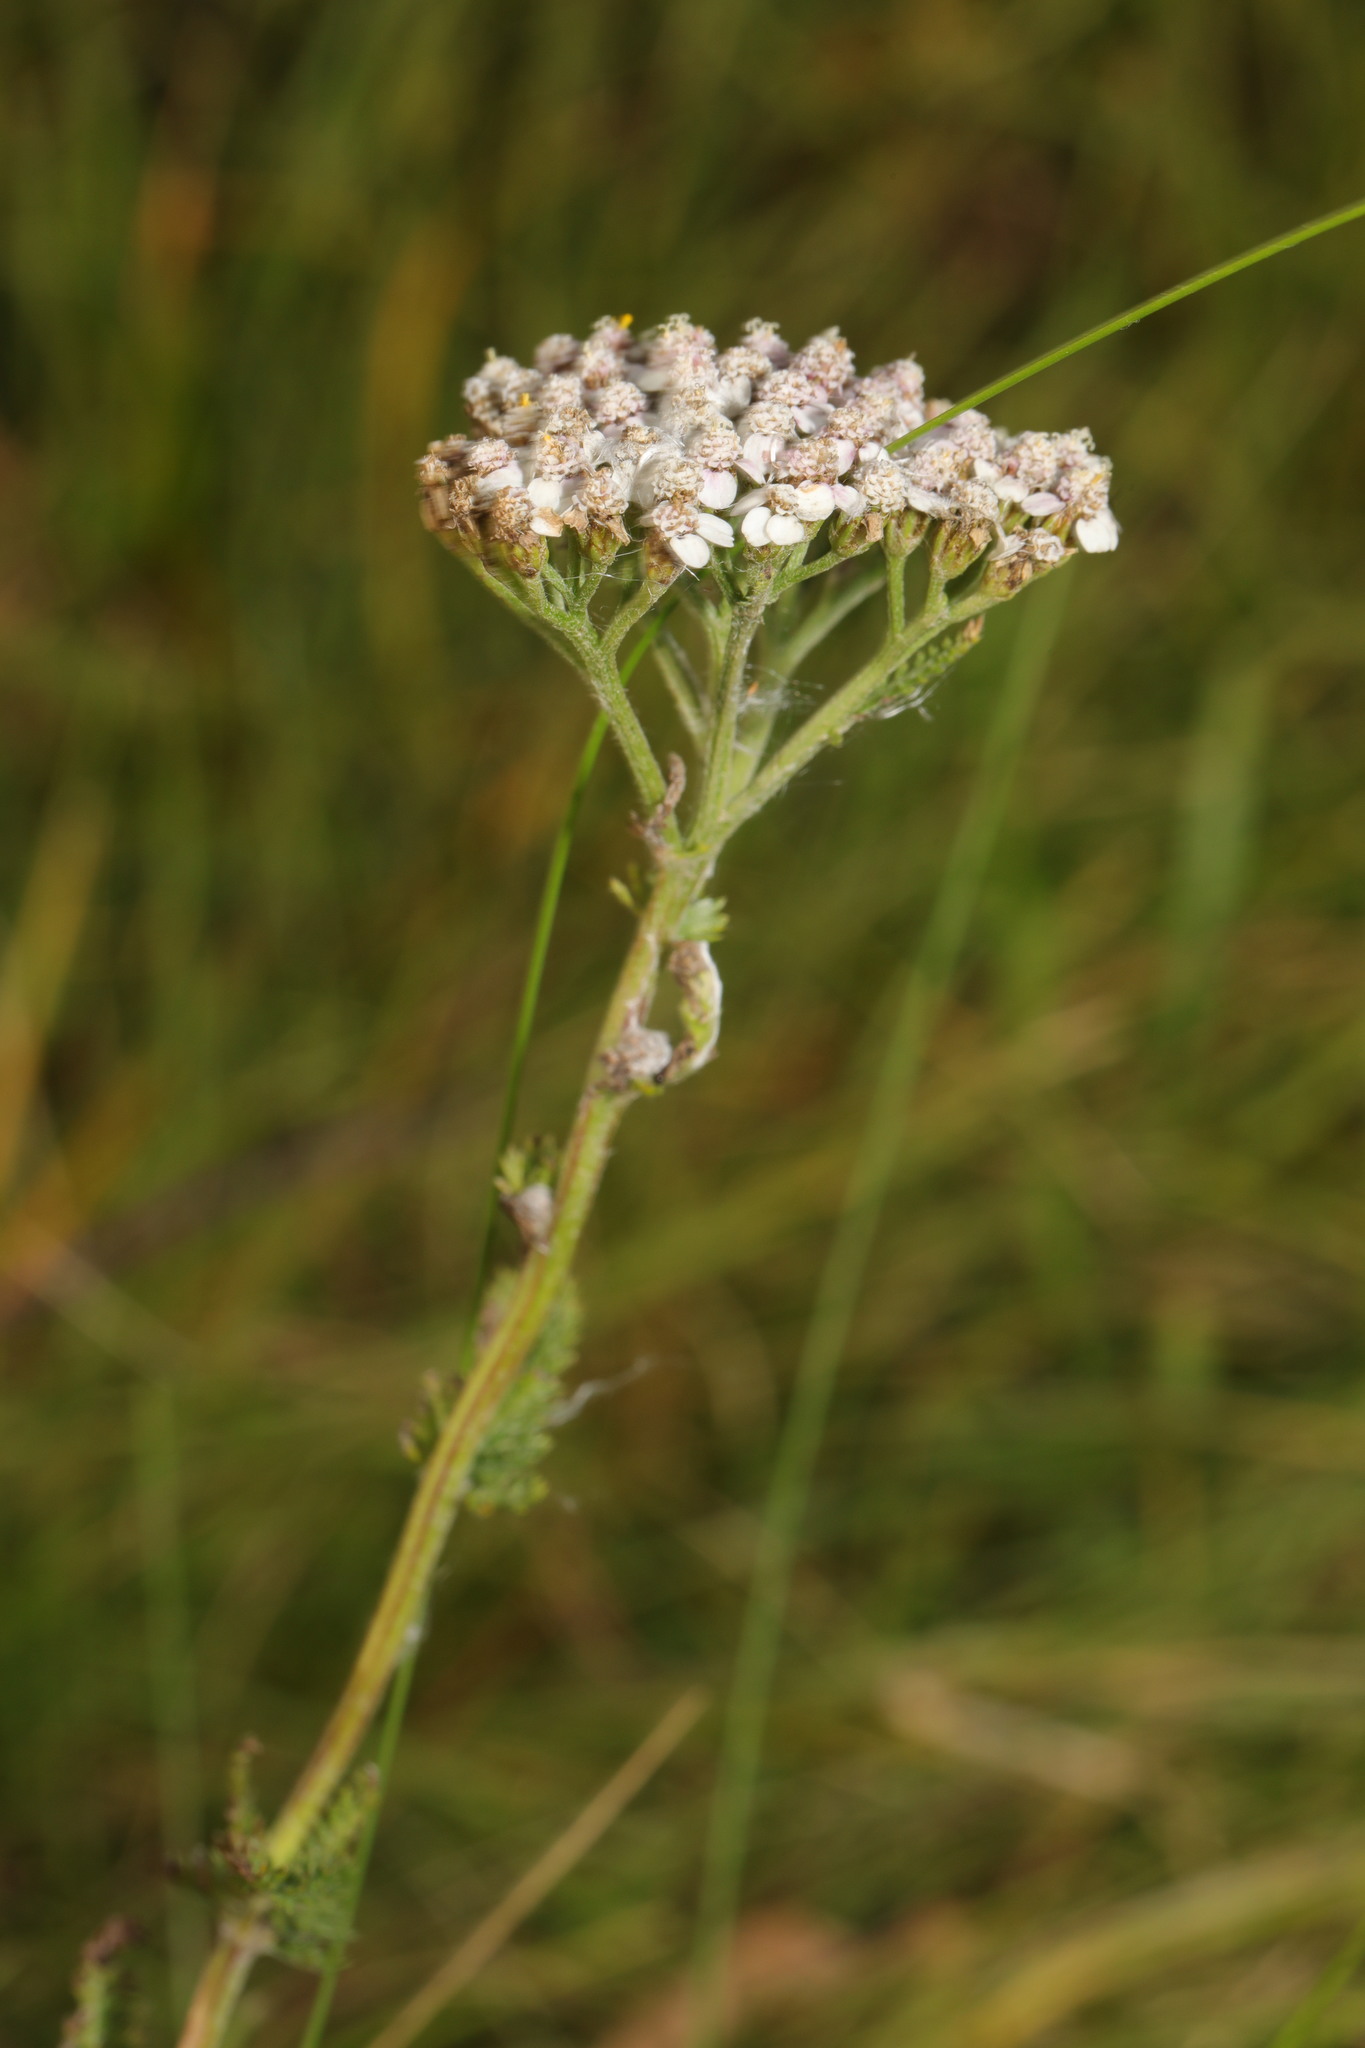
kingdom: Plantae
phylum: Tracheophyta
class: Magnoliopsida
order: Asterales
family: Asteraceae
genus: Achillea
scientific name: Achillea millefolium
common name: Yarrow
